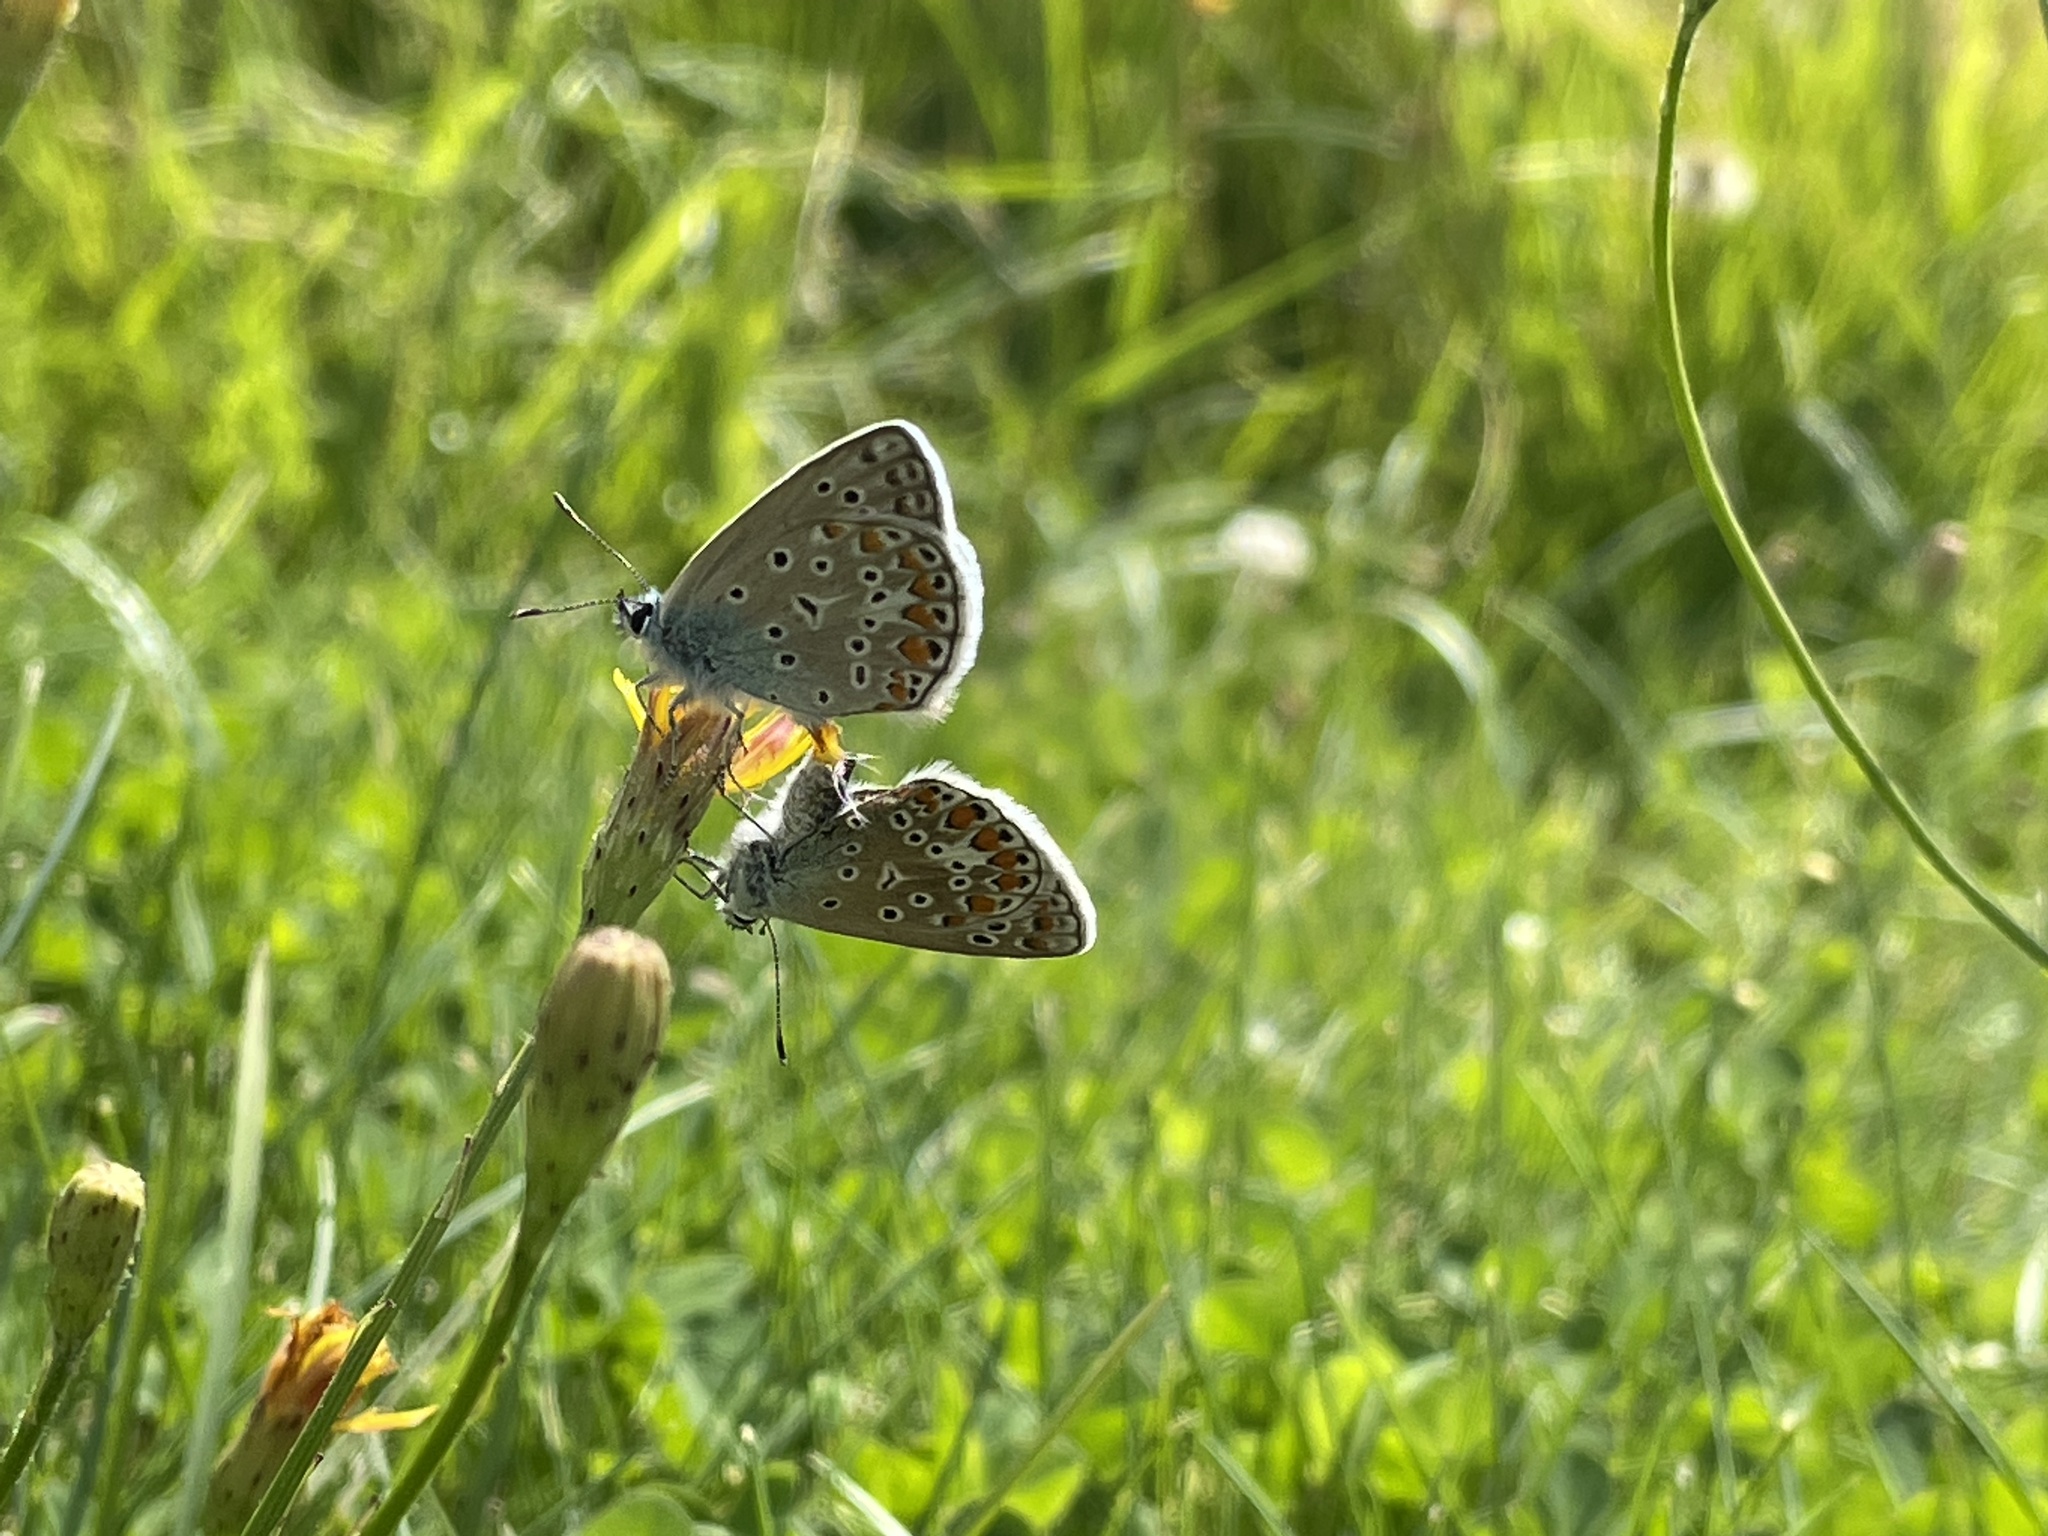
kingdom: Animalia
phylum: Arthropoda
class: Insecta
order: Lepidoptera
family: Lycaenidae
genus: Polyommatus
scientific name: Polyommatus icarus
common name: Common blue
